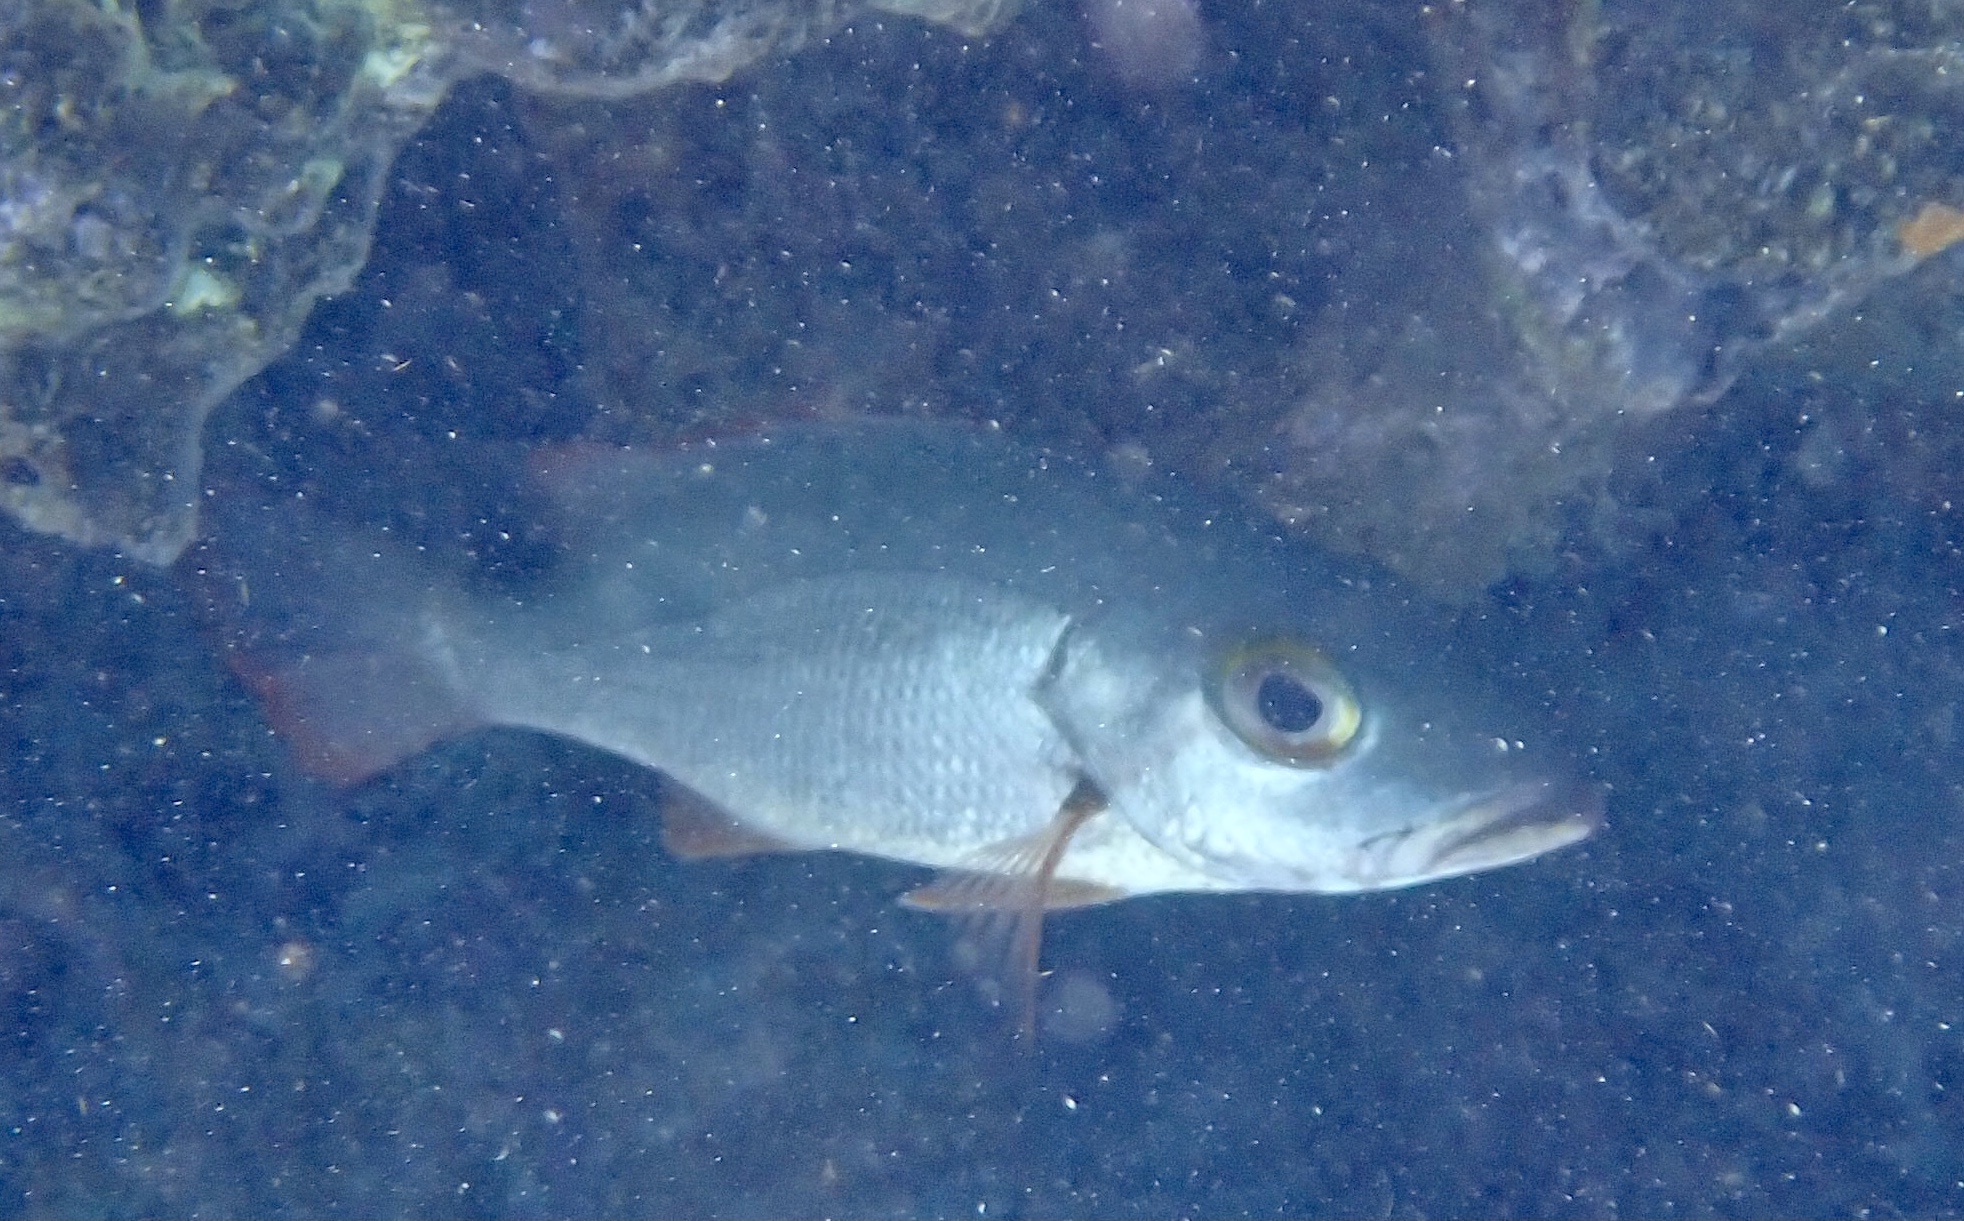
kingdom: Animalia
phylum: Chordata
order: Perciformes
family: Lutjanidae
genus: Lutjanus
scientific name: Lutjanus mahogoni
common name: Spot snapper
